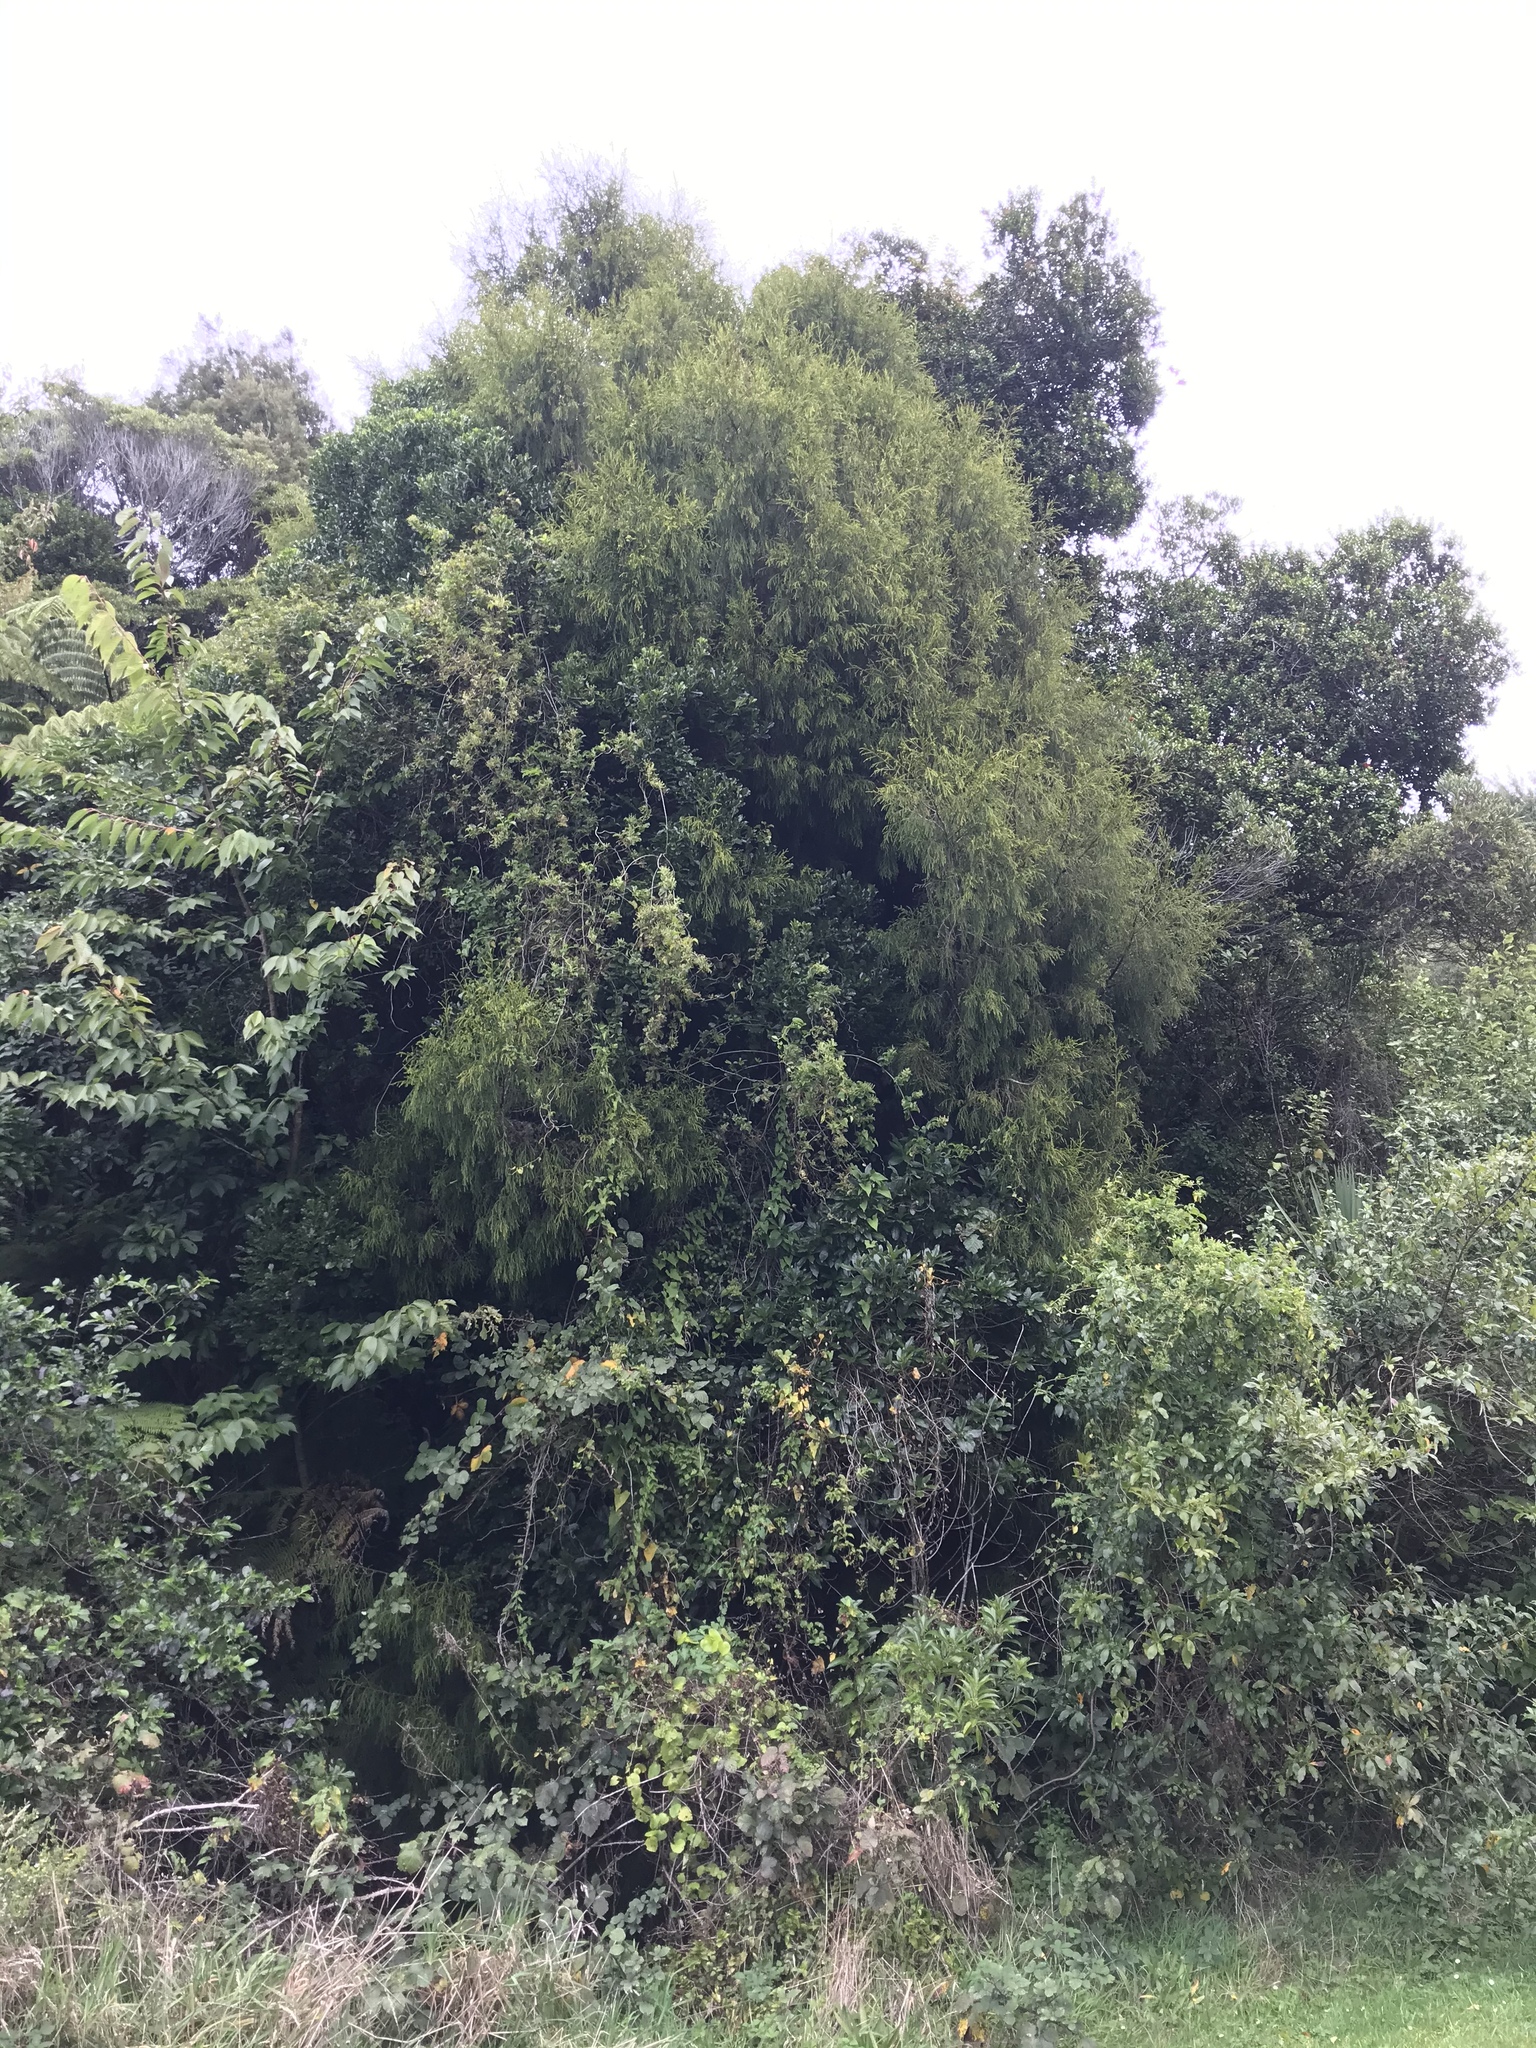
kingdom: Plantae
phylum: Tracheophyta
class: Pinopsida
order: Pinales
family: Podocarpaceae
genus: Dacrydium
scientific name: Dacrydium cupressinum
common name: Red pine
